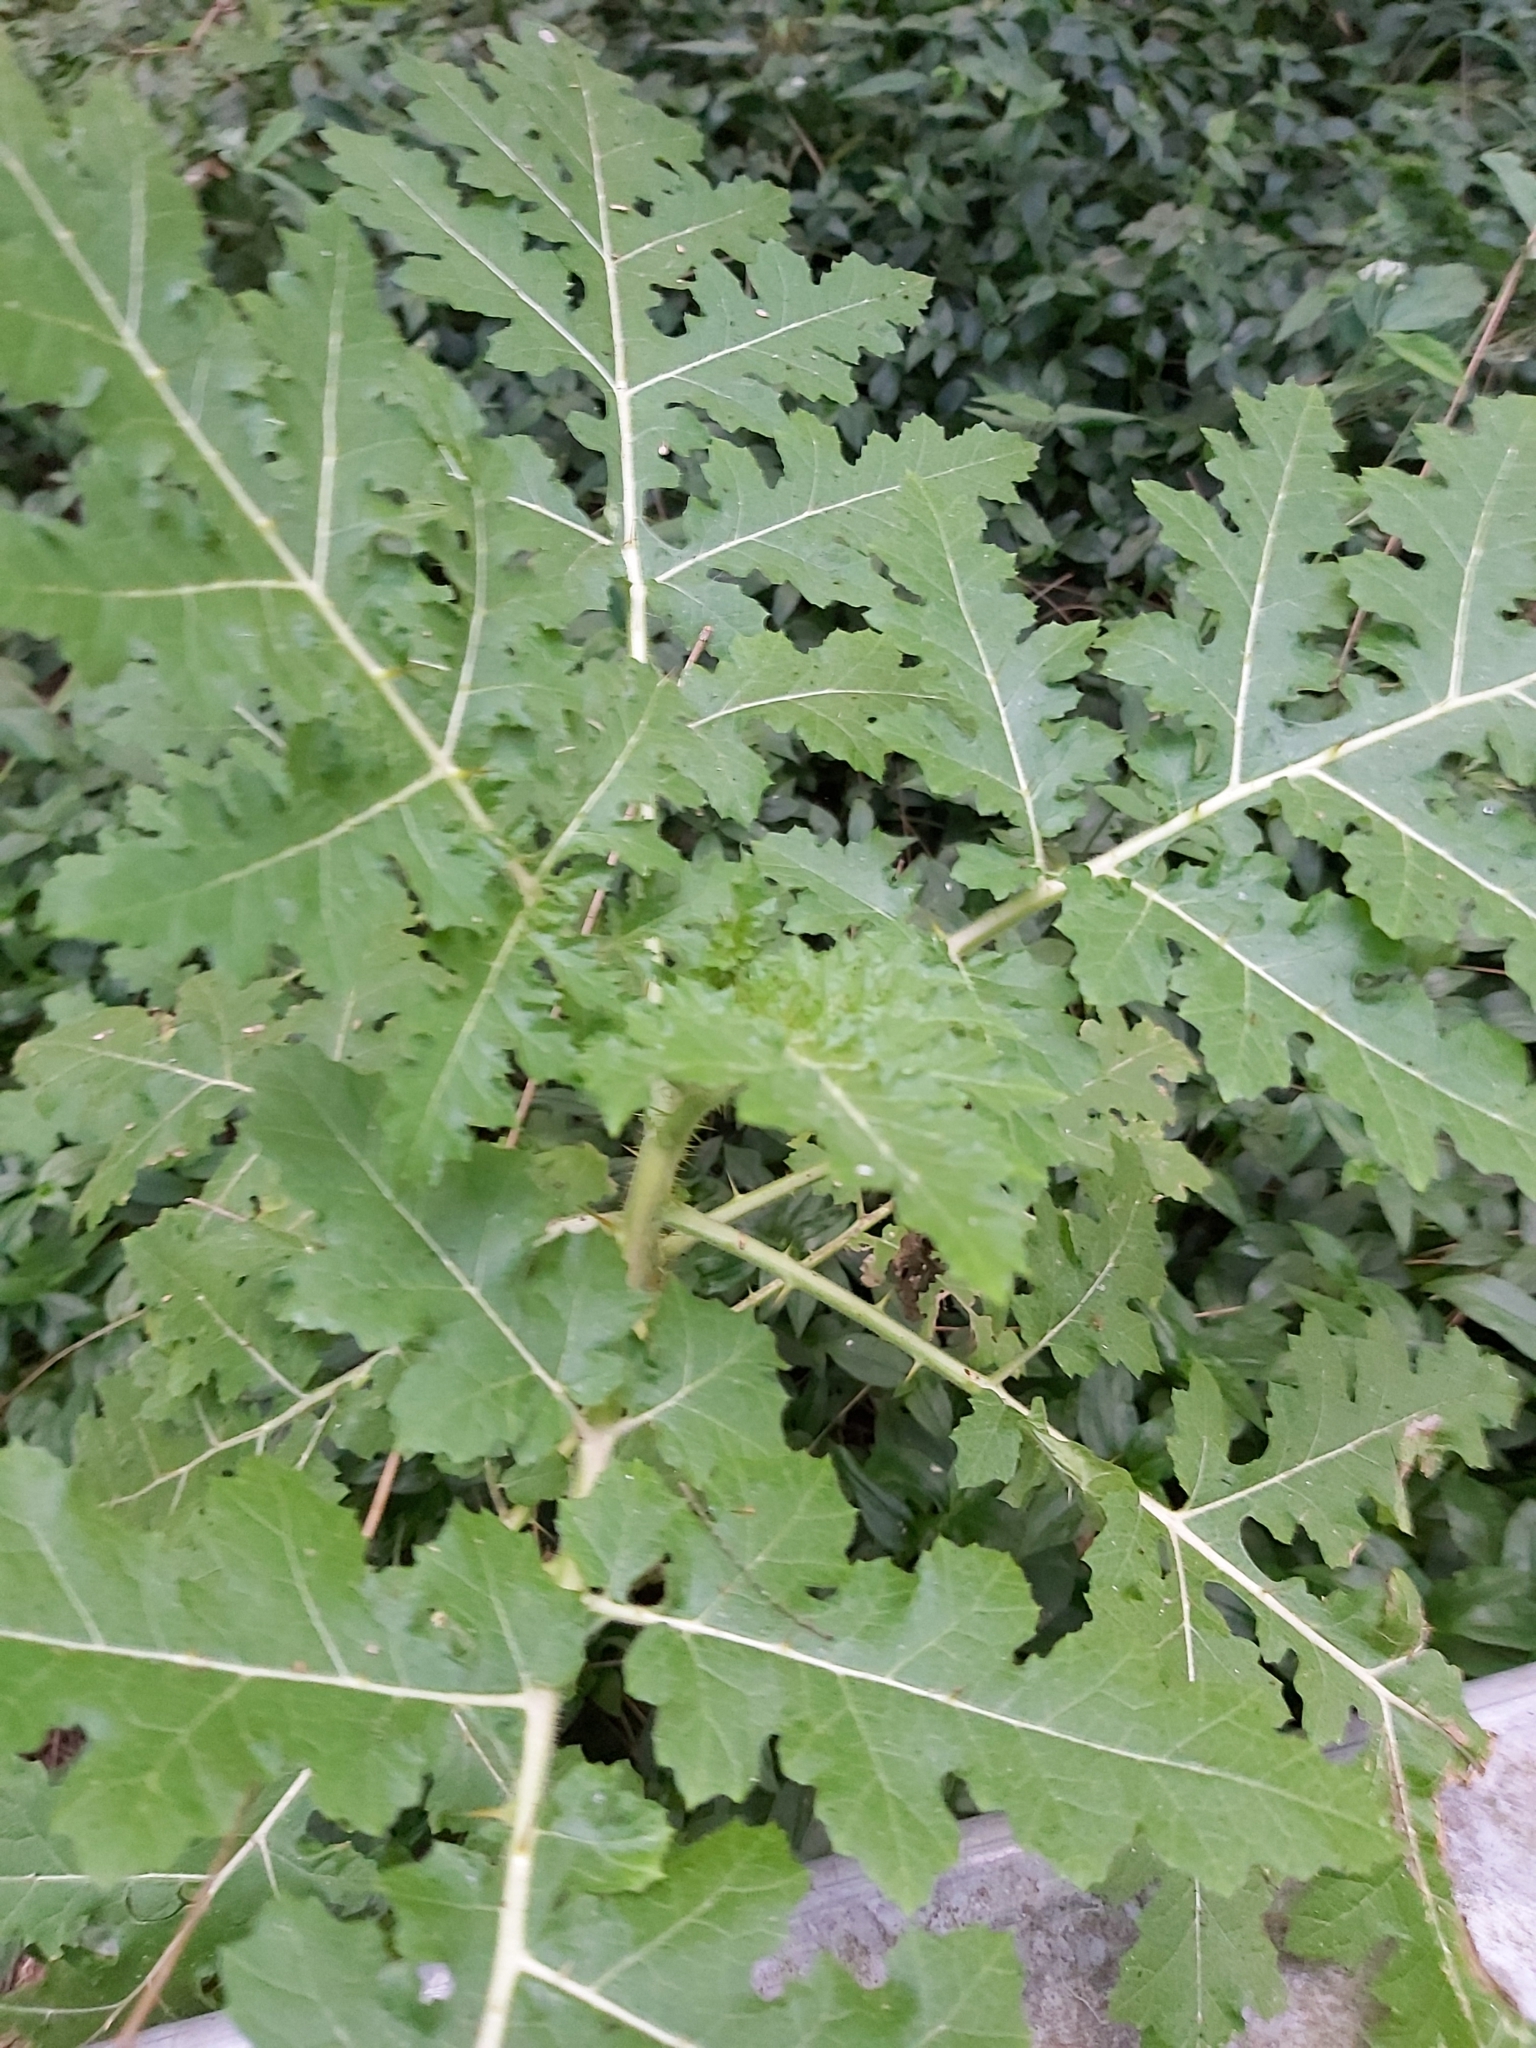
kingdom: Plantae
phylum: Tracheophyta
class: Magnoliopsida
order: Solanales
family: Solanaceae
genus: Solanum
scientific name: Solanum sisymbriifolium
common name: Red buffalo-bur
